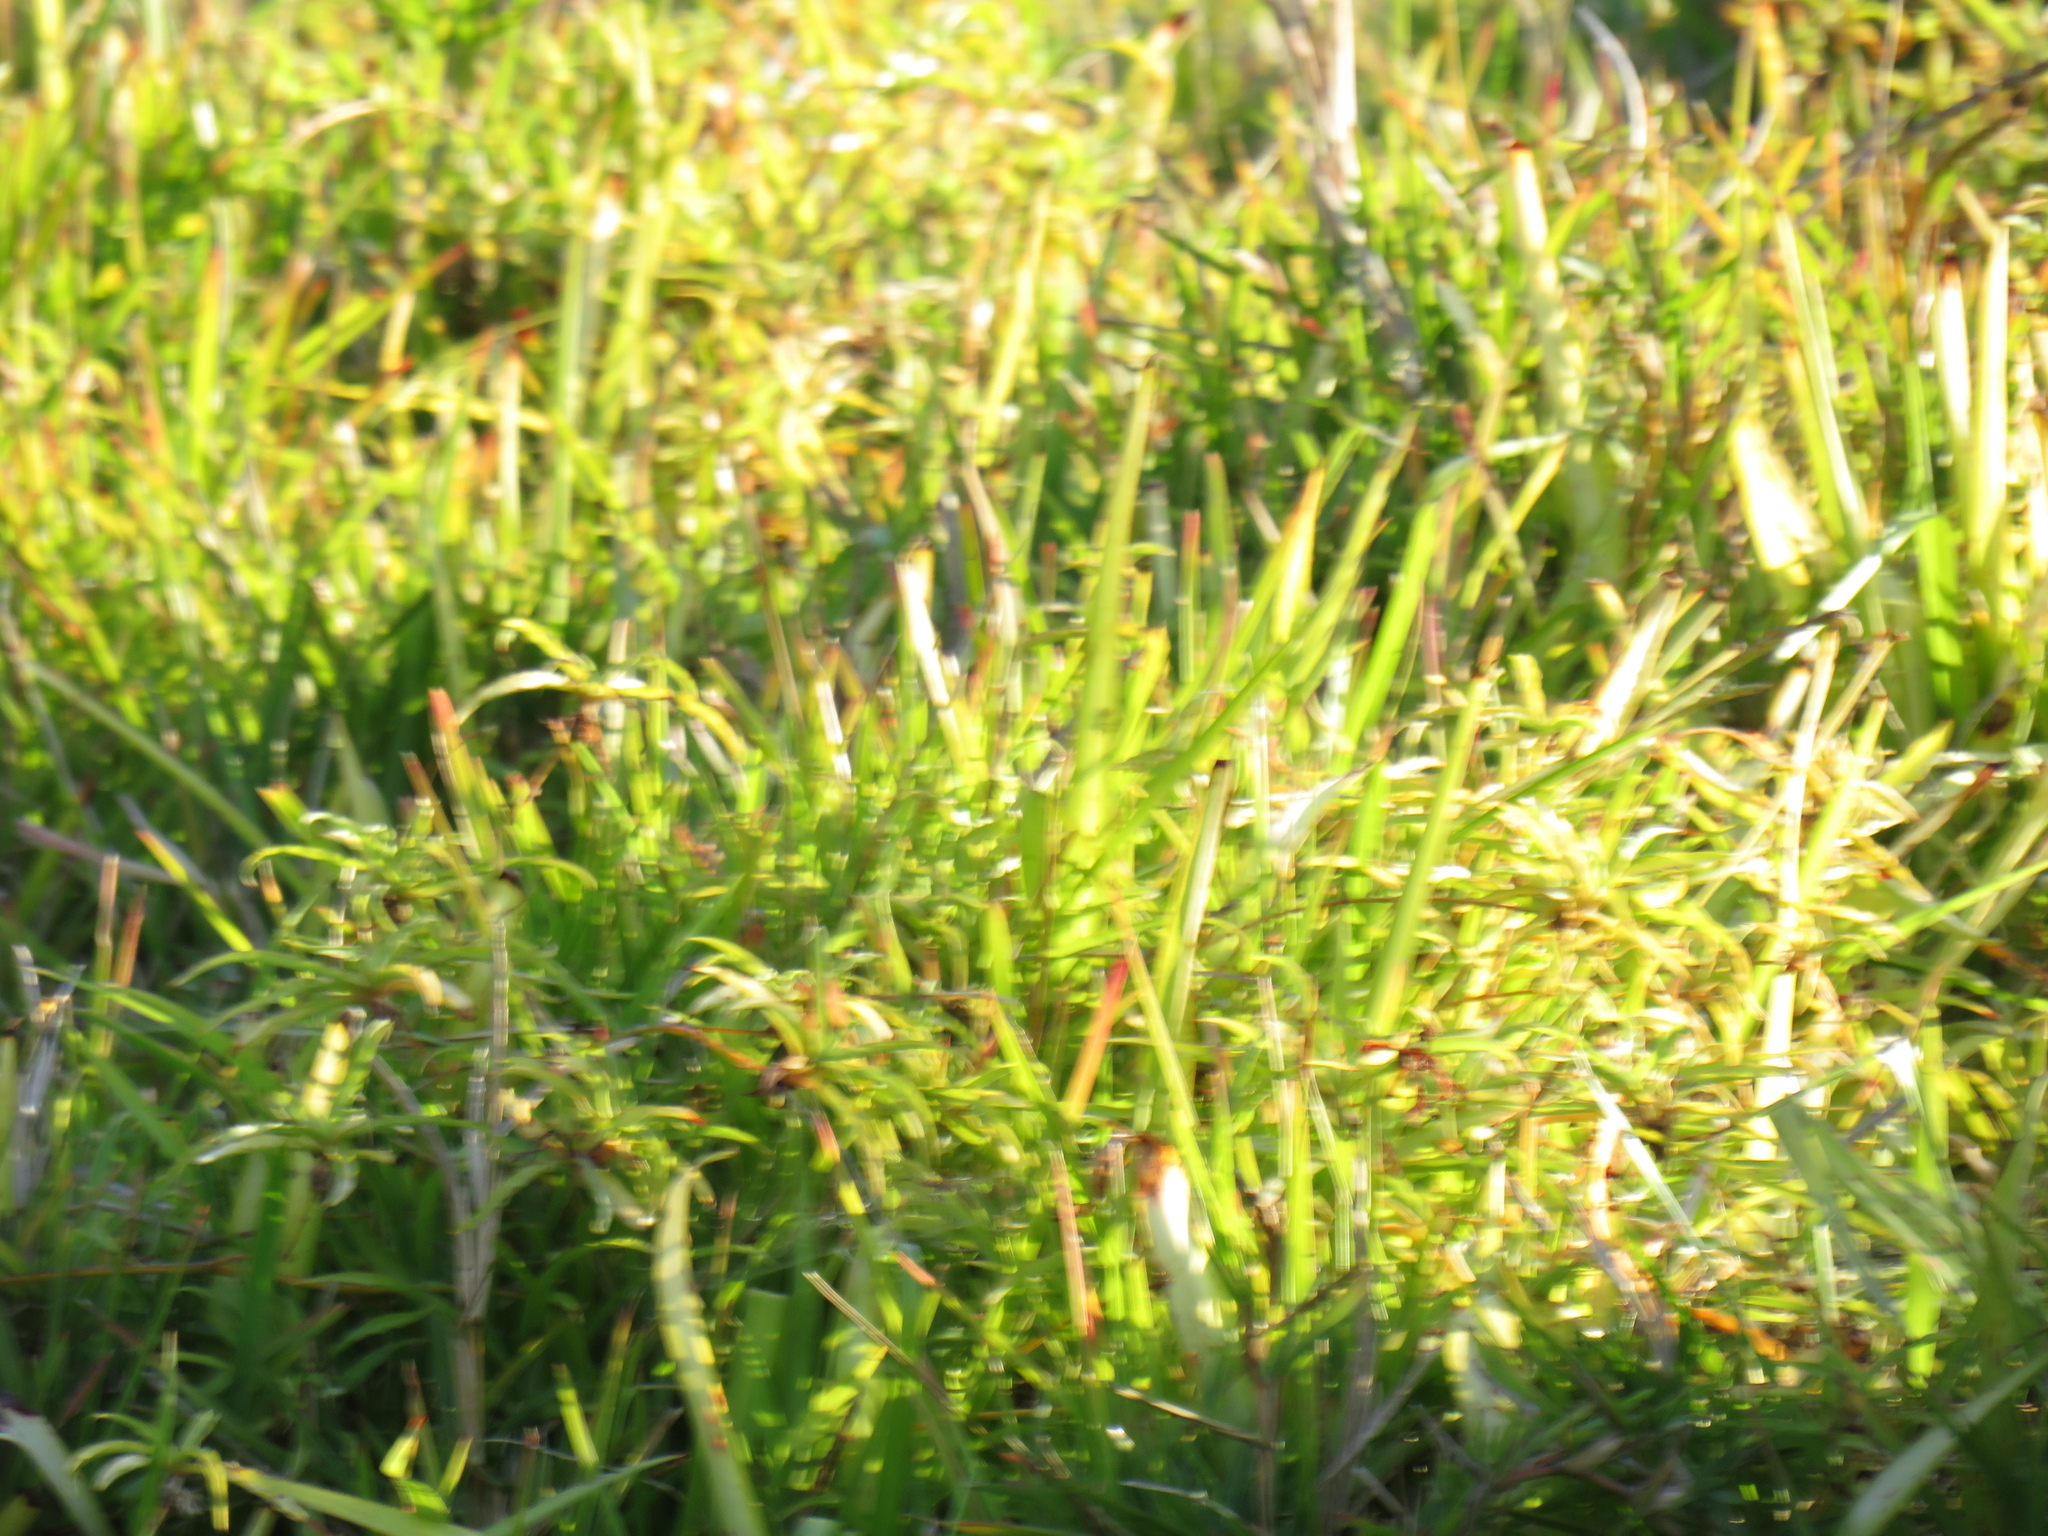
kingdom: Plantae
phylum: Tracheophyta
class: Liliopsida
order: Asparagales
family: Asparagaceae
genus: Chlorophytum
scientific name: Chlorophytum comosum
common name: Spider plant
